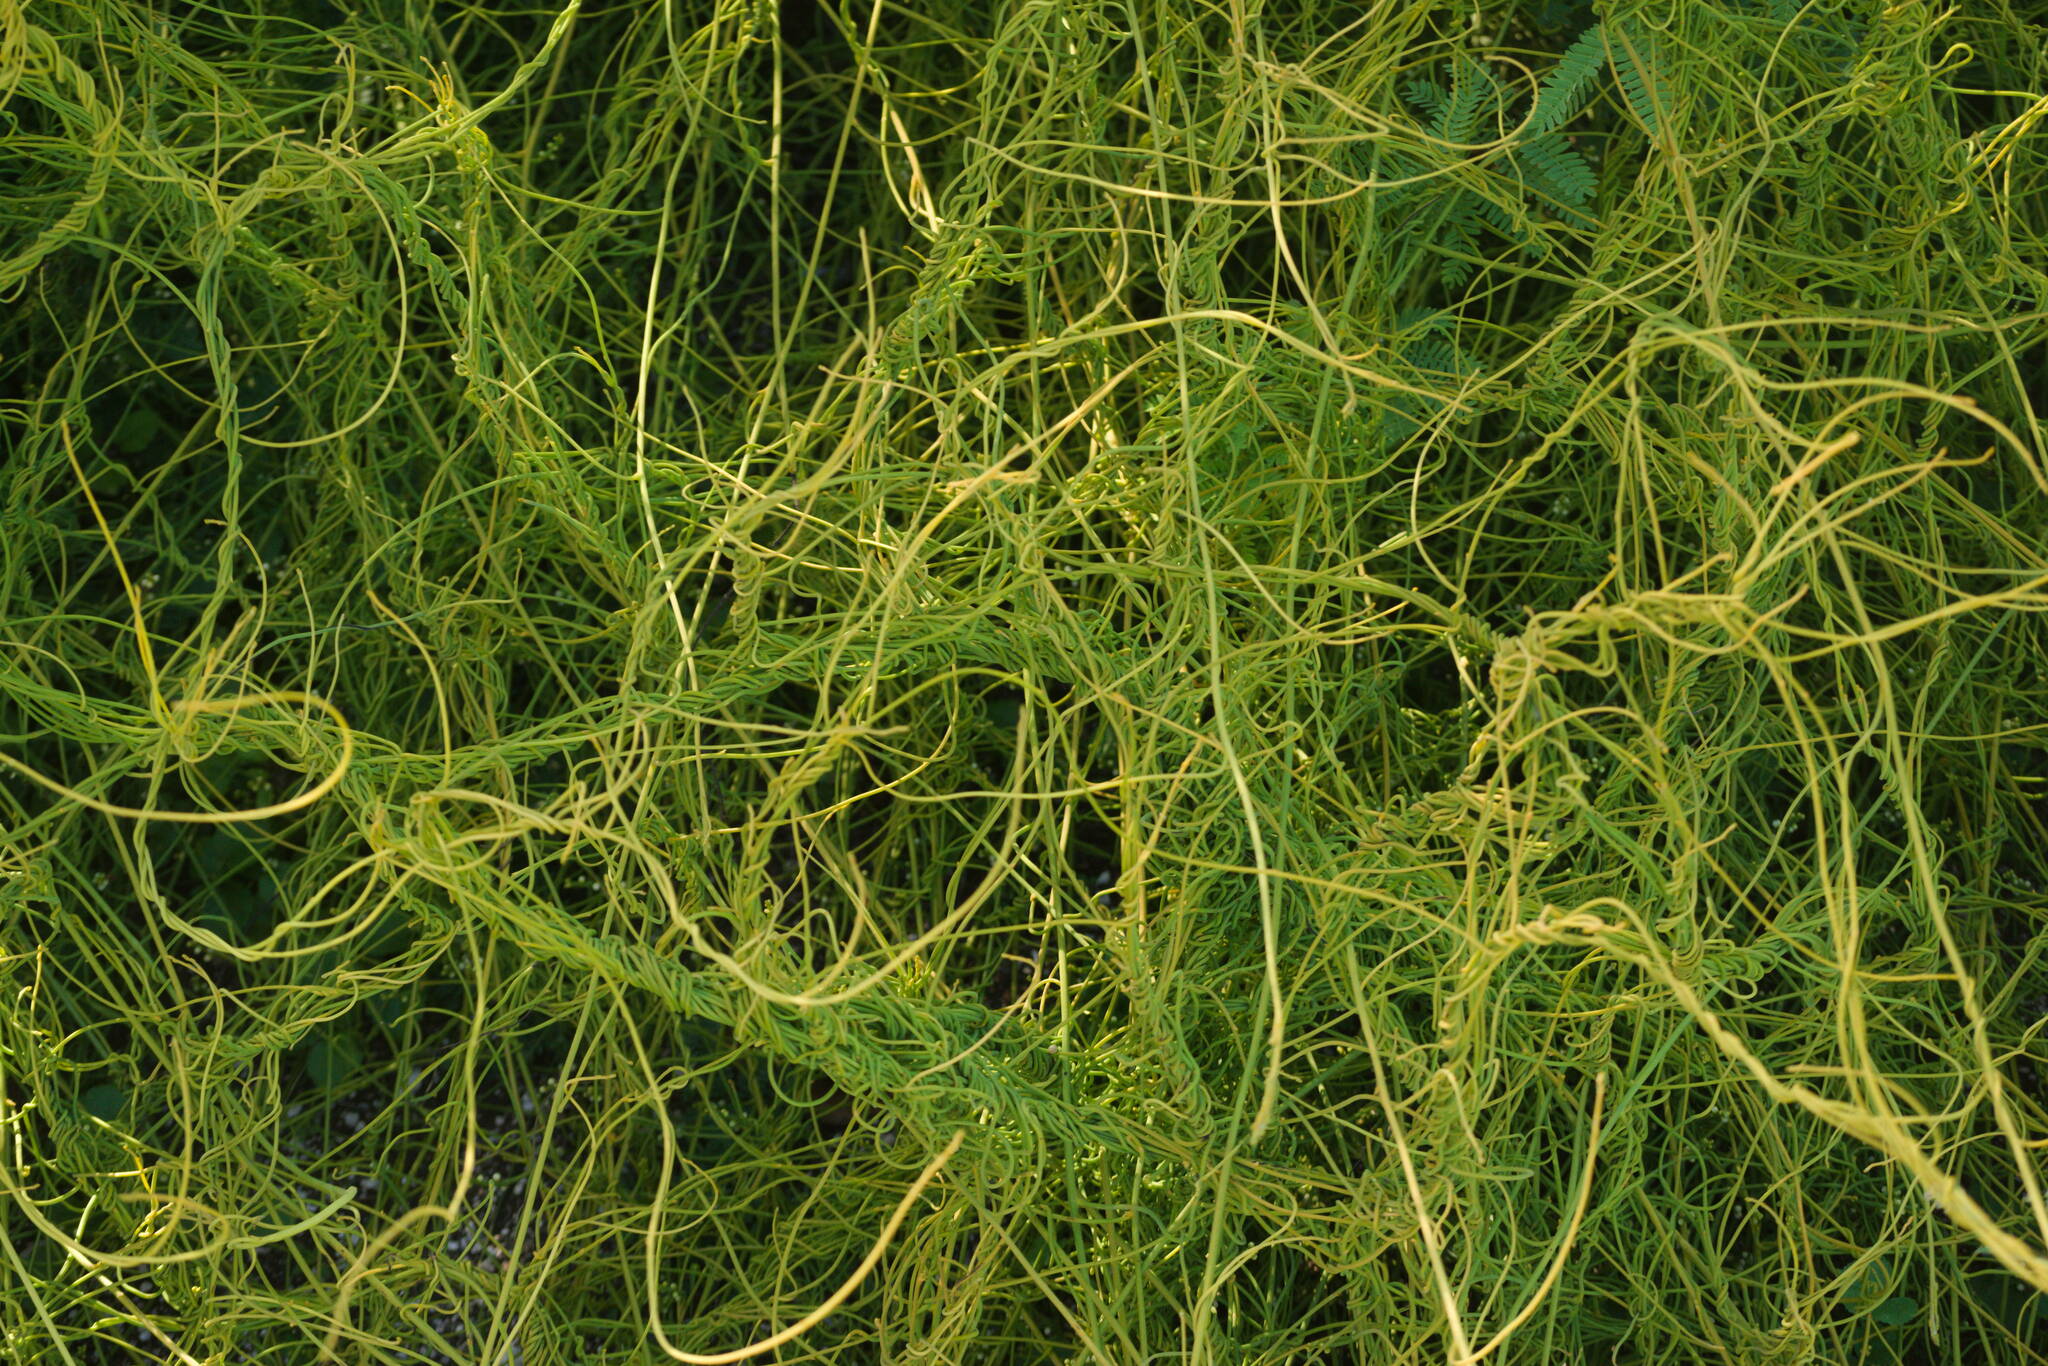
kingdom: Plantae
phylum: Tracheophyta
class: Magnoliopsida
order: Laurales
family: Lauraceae
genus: Cassytha
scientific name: Cassytha filiformis
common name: Dodder-laurel
